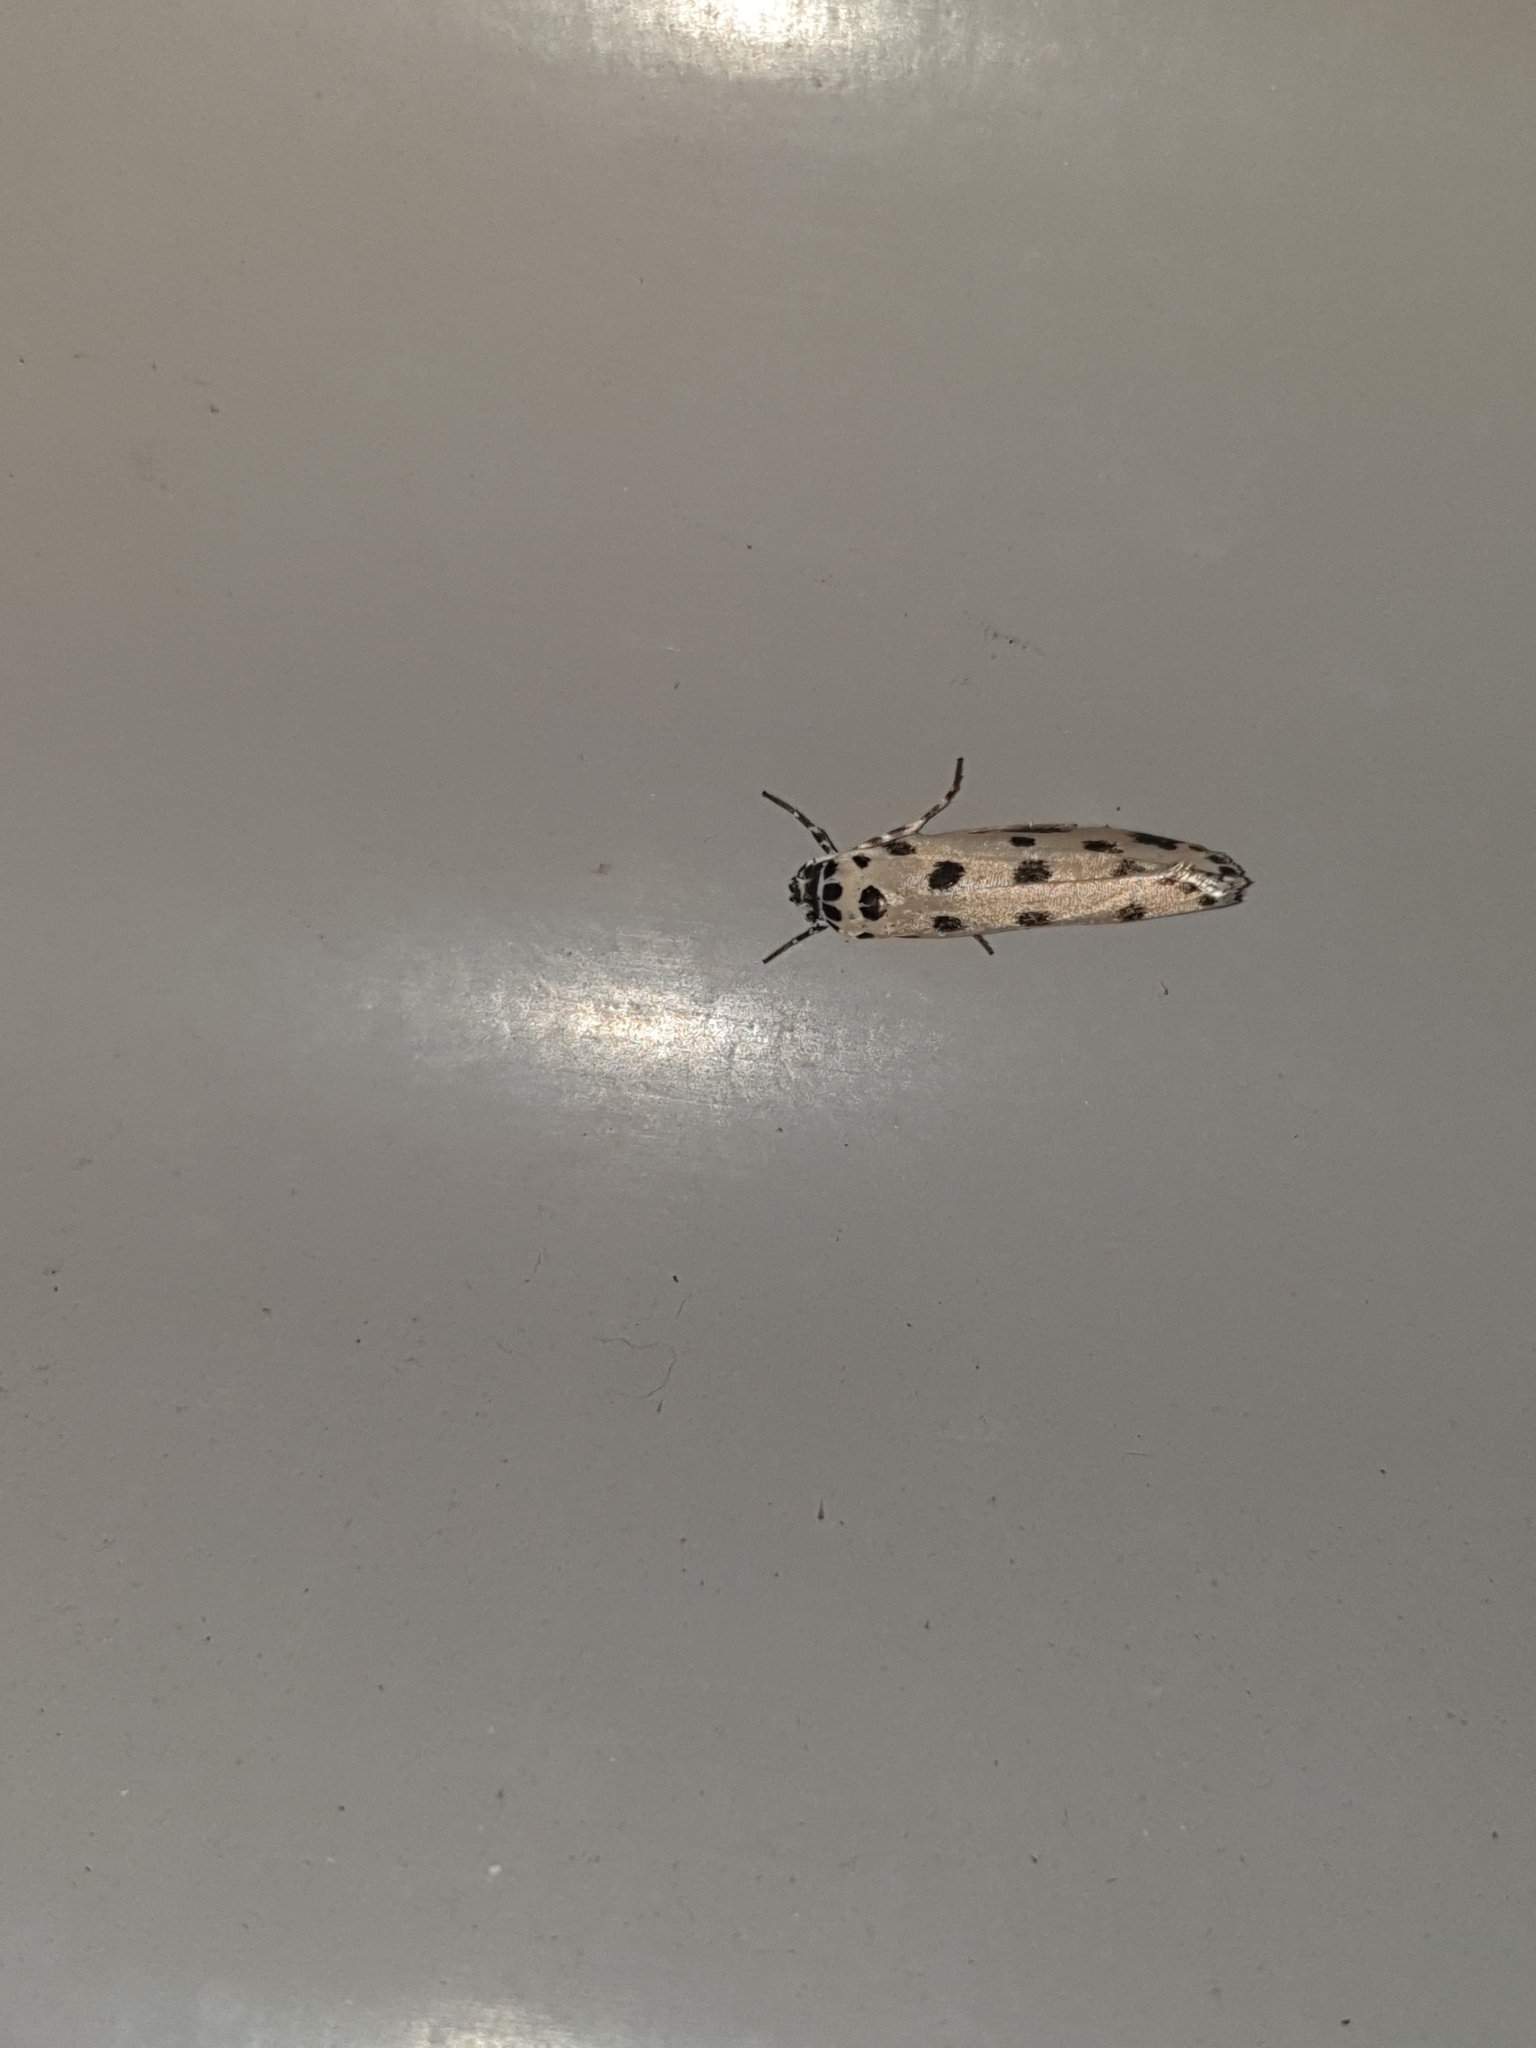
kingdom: Animalia
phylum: Arthropoda
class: Insecta
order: Lepidoptera
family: Ethmiidae
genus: Ethmia
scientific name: Ethmia sphaerosticha
